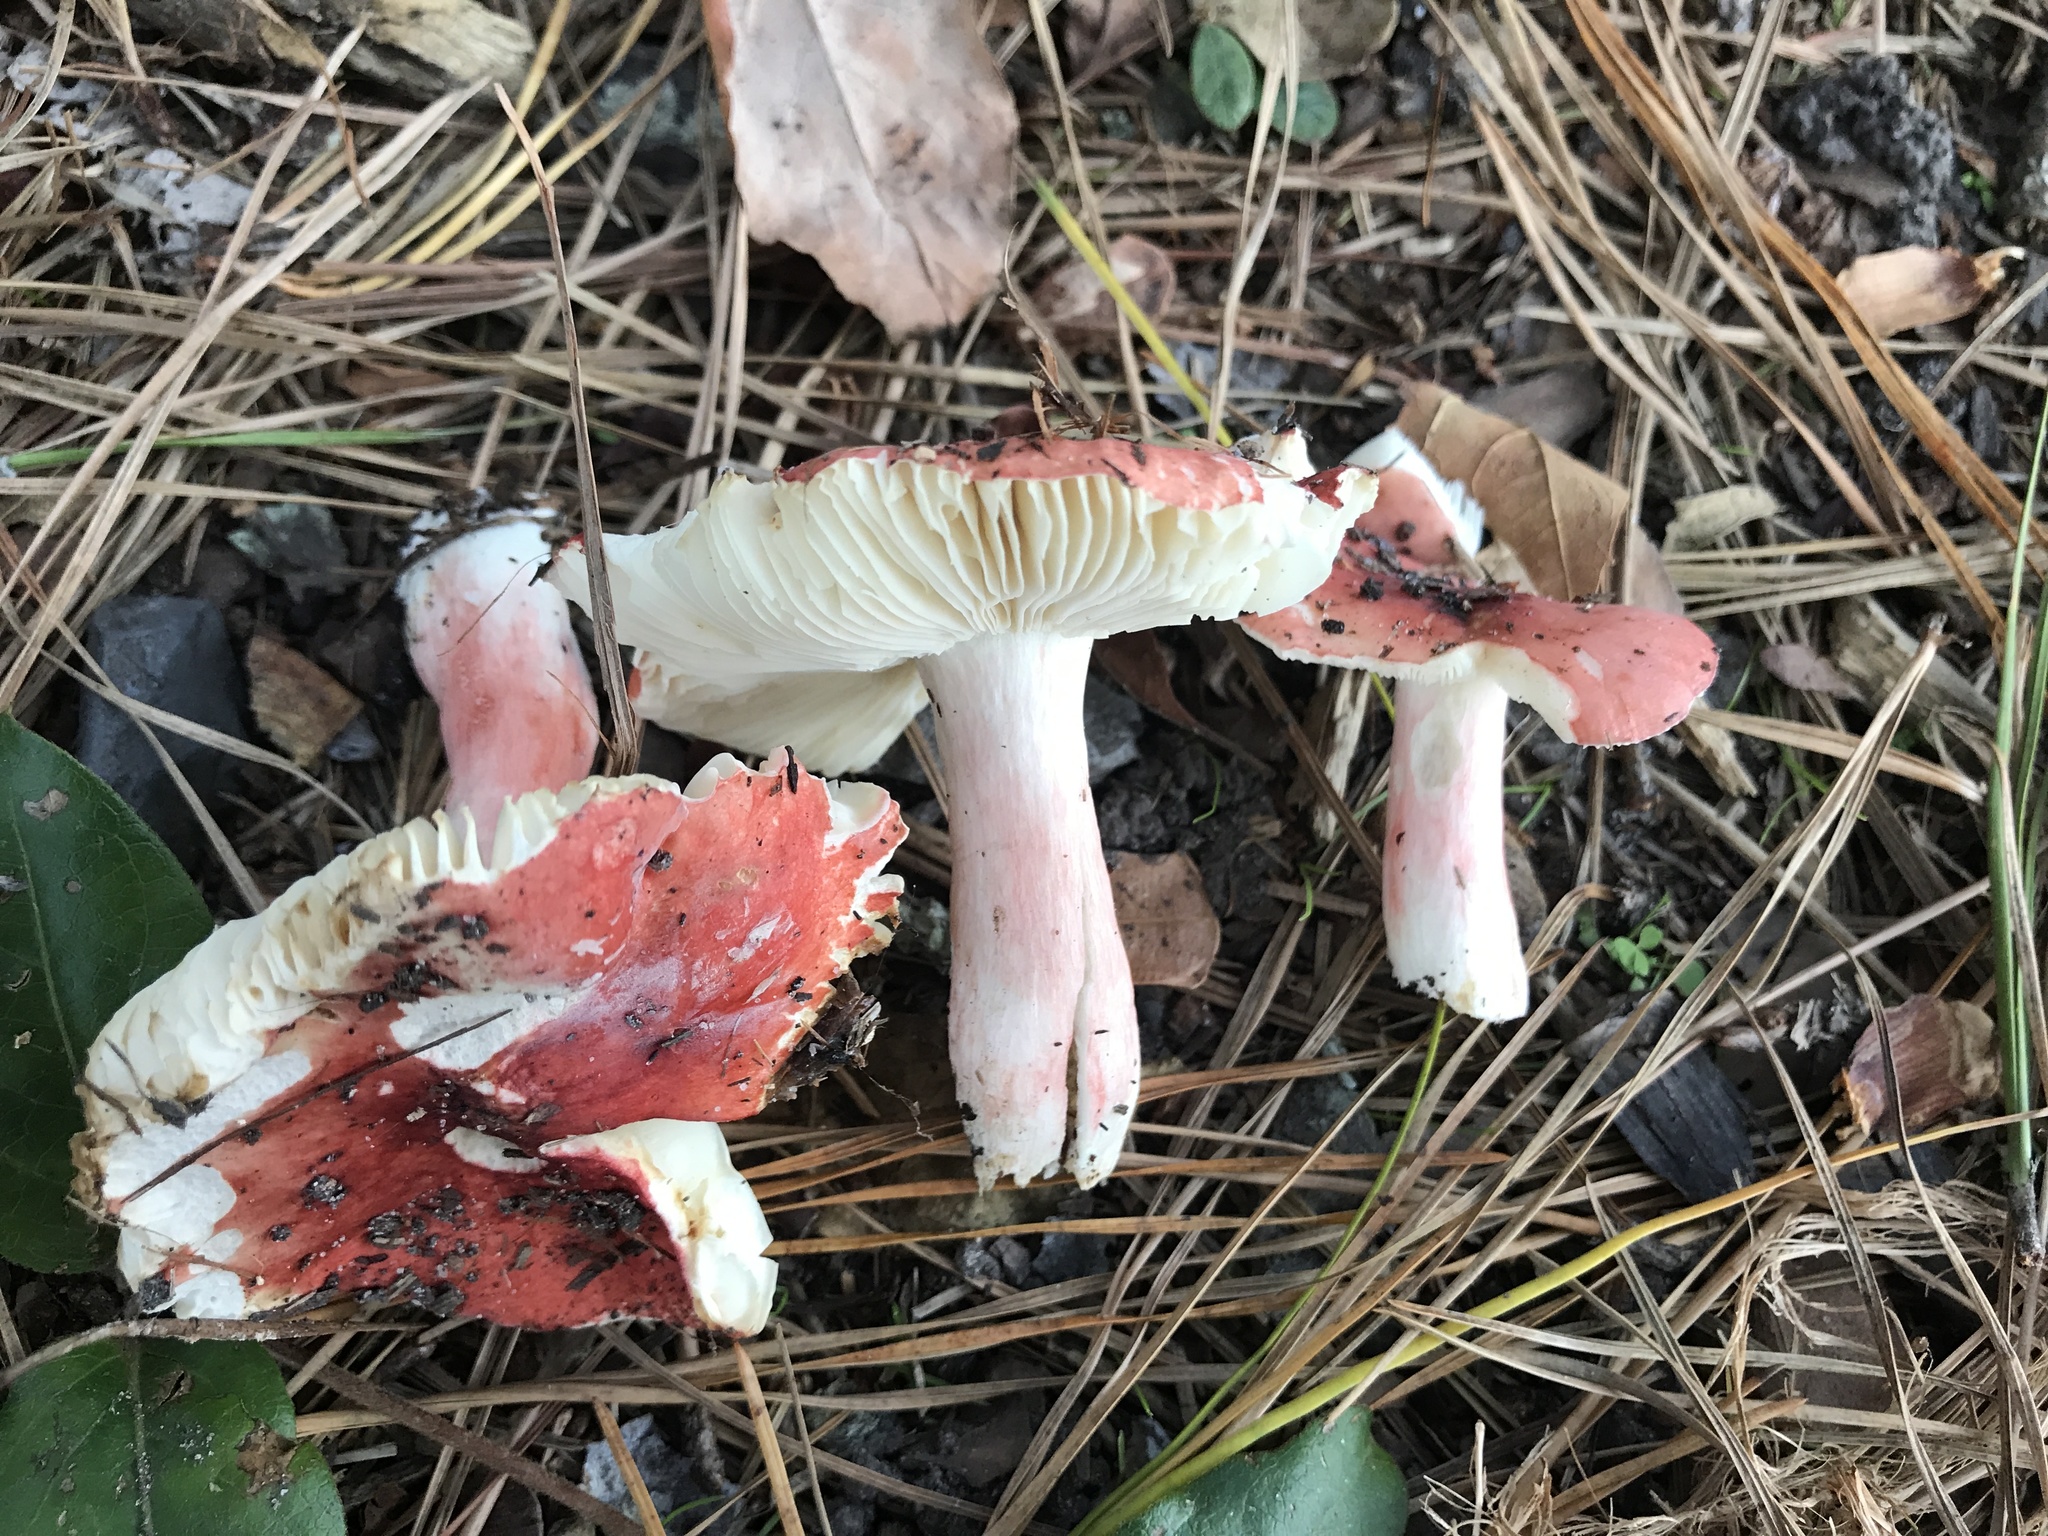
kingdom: Fungi
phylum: Basidiomycota
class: Agaricomycetes
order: Russulales
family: Russulaceae
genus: Russula
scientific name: Russula
